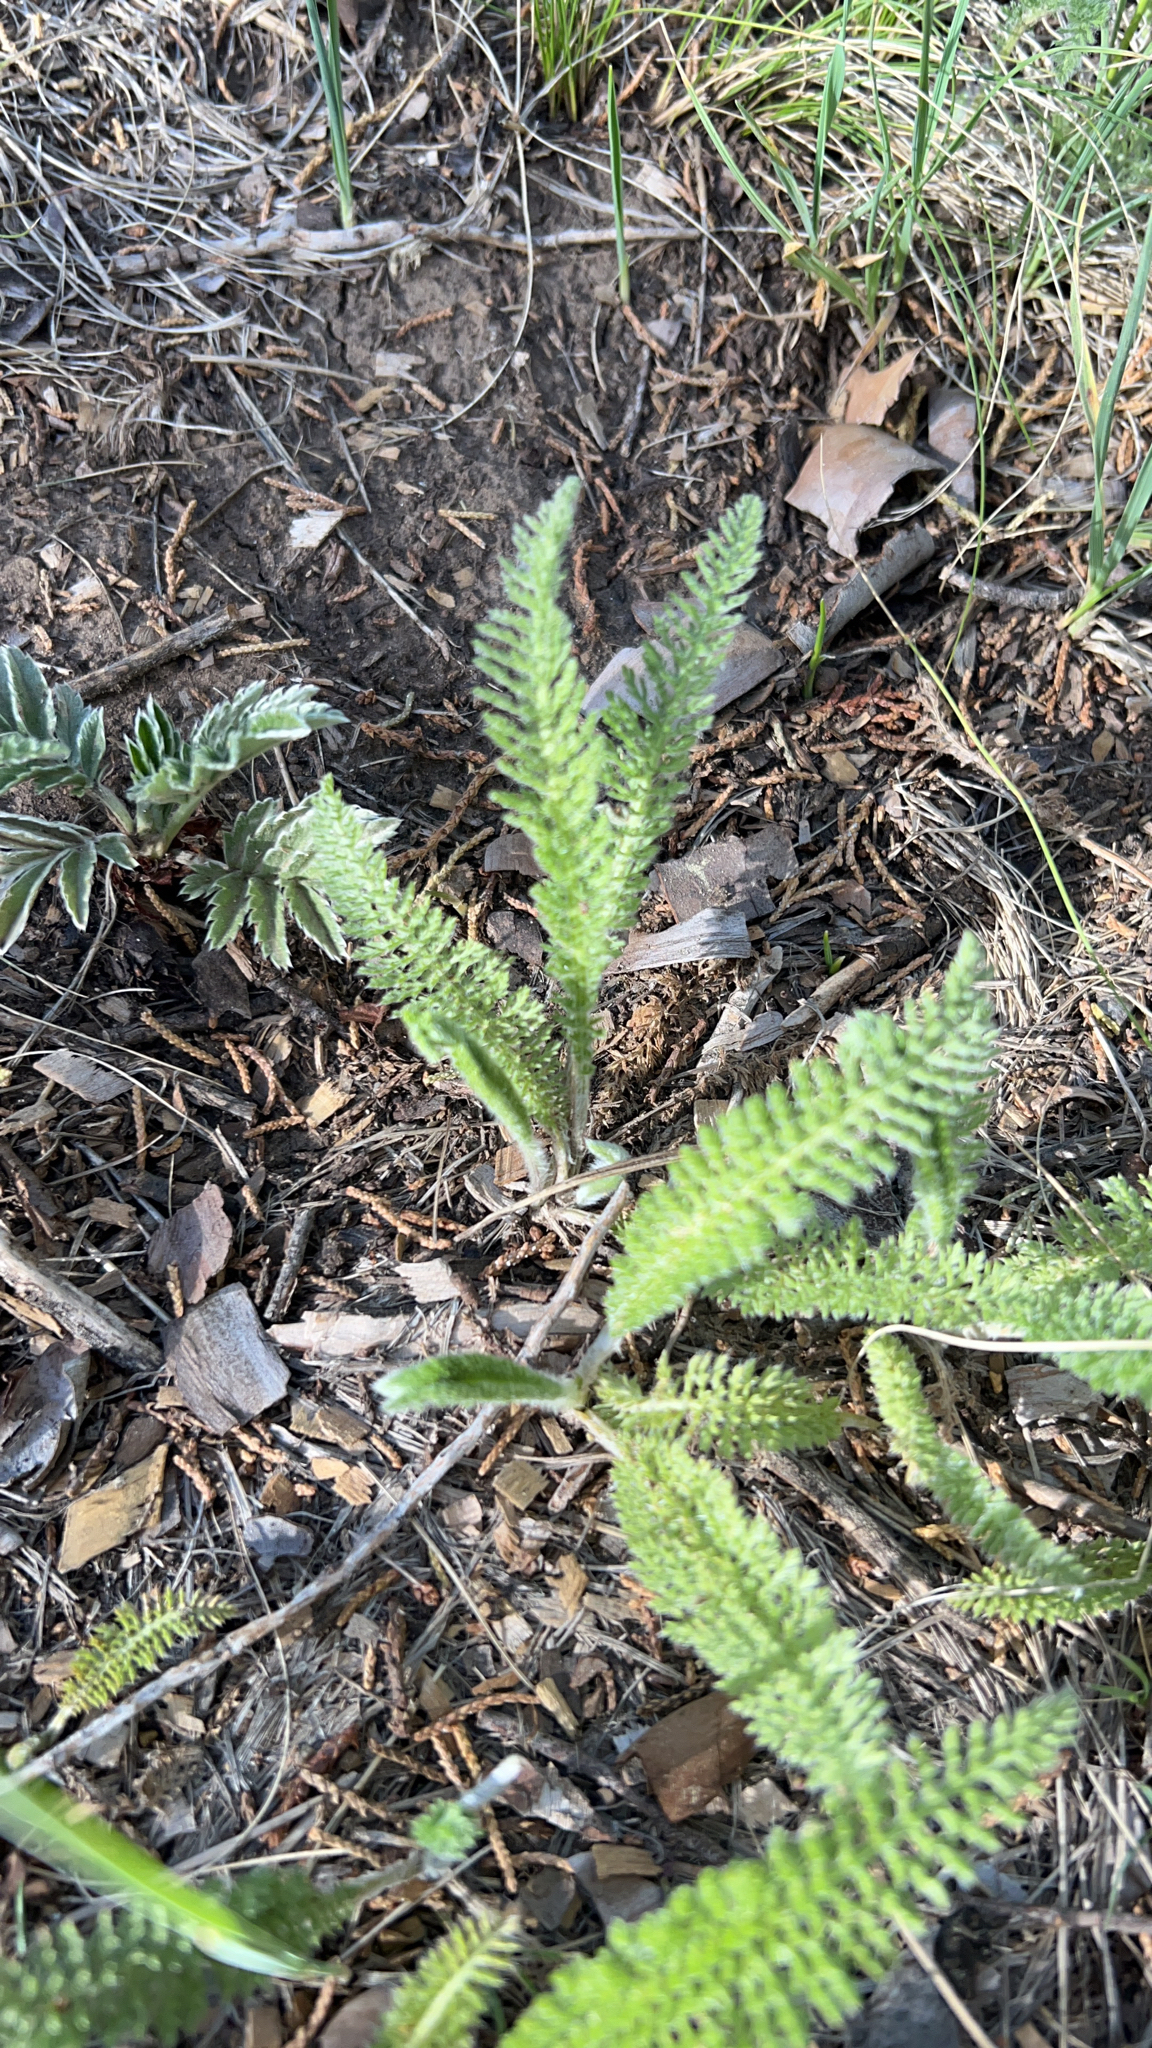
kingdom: Plantae
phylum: Tracheophyta
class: Magnoliopsida
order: Asterales
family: Asteraceae
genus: Achillea
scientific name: Achillea millefolium
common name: Yarrow
